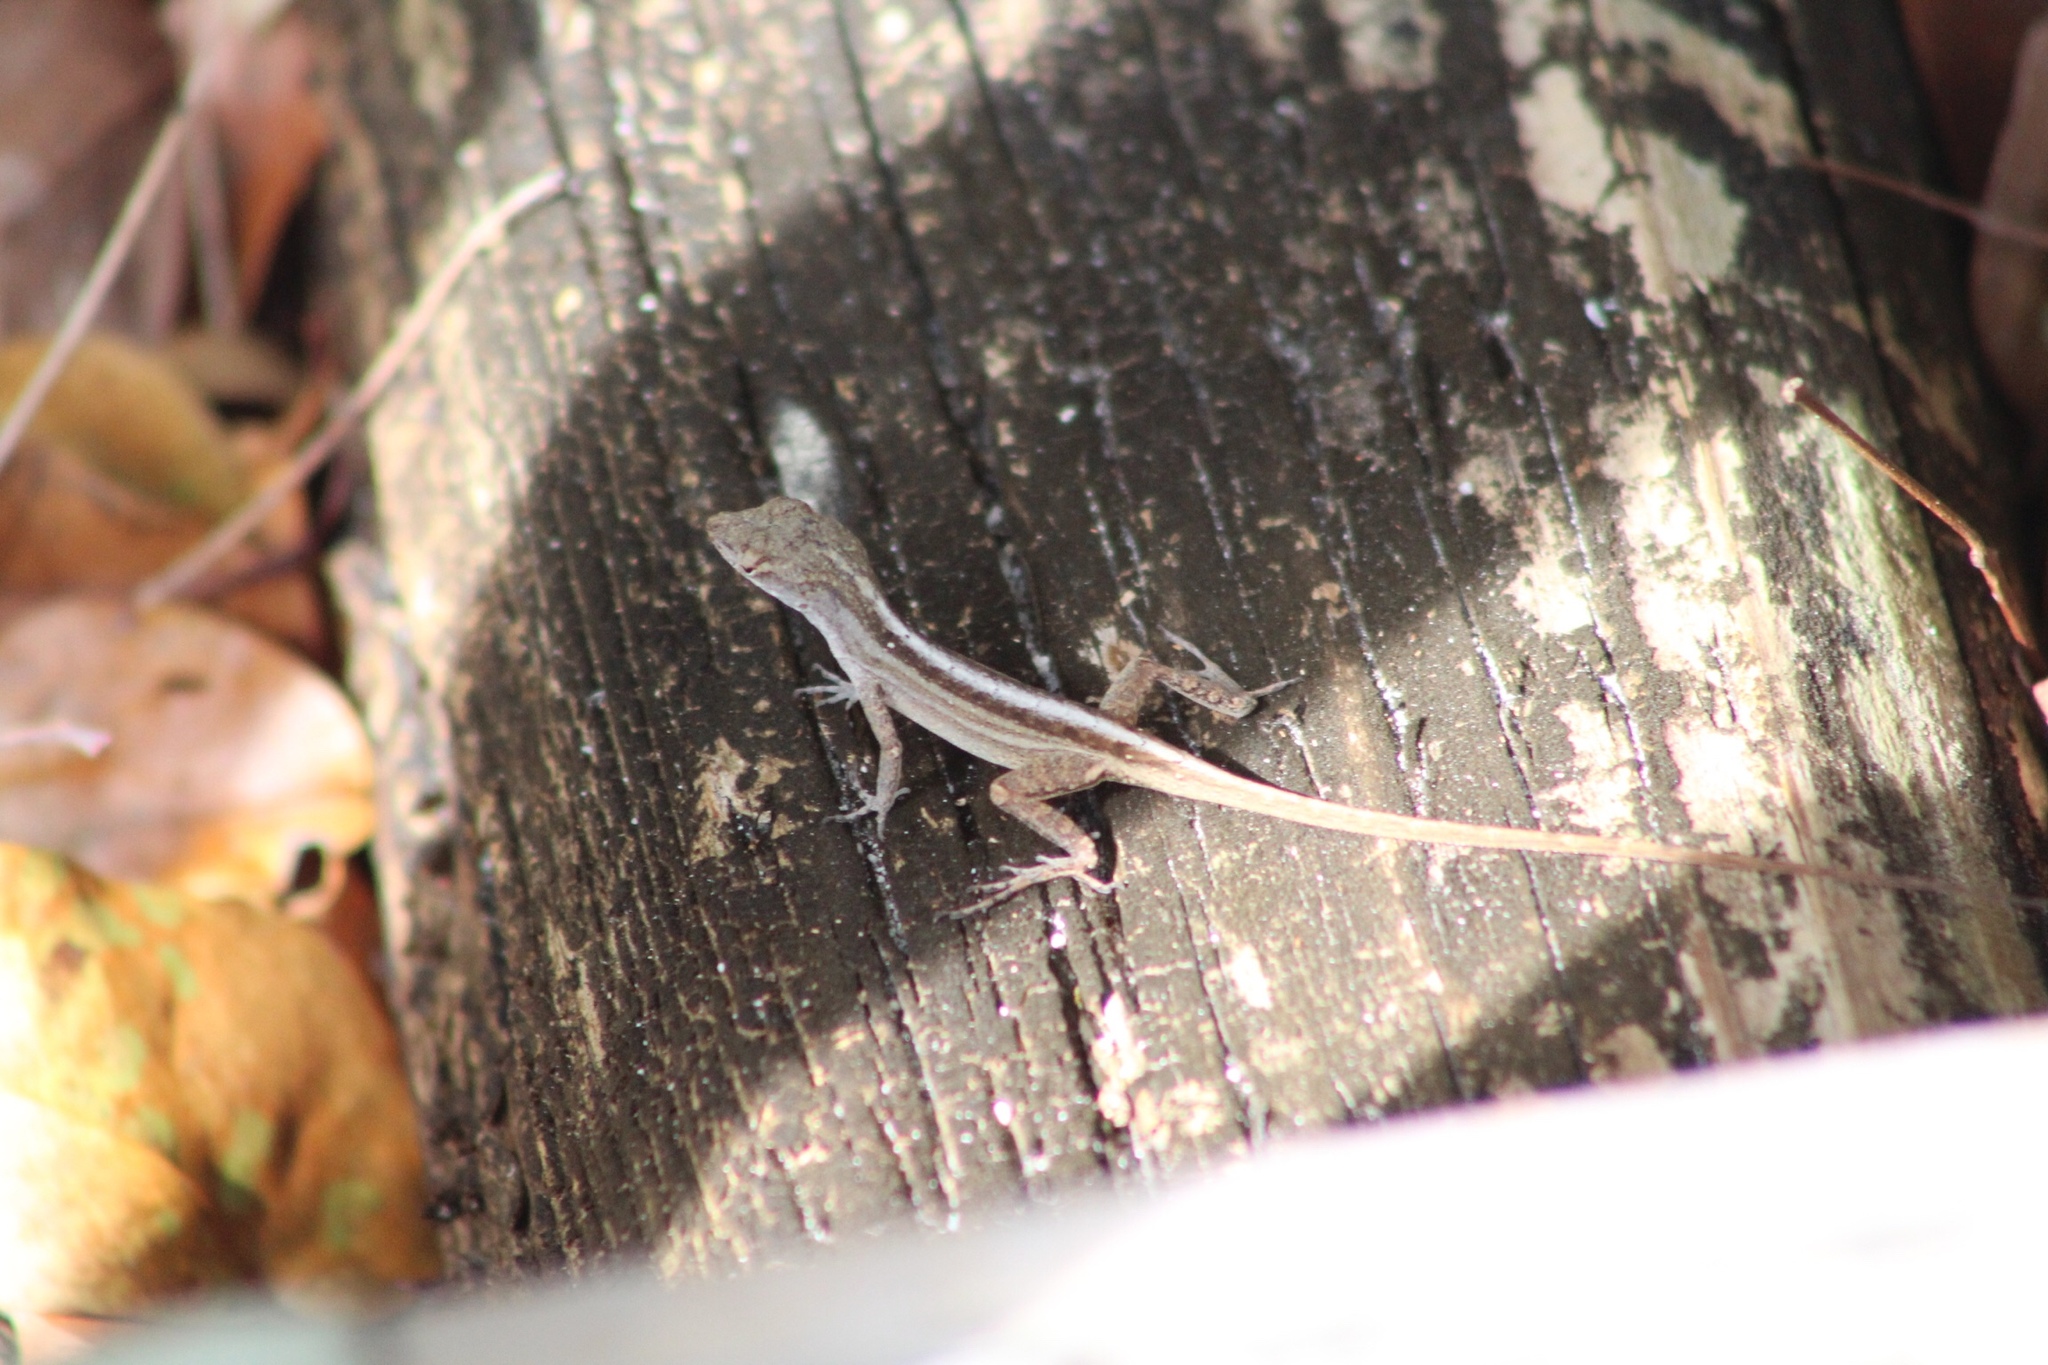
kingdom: Animalia
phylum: Chordata
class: Squamata
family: Dactyloidae
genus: Anolis
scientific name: Anolis sagrei
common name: Brown anole
